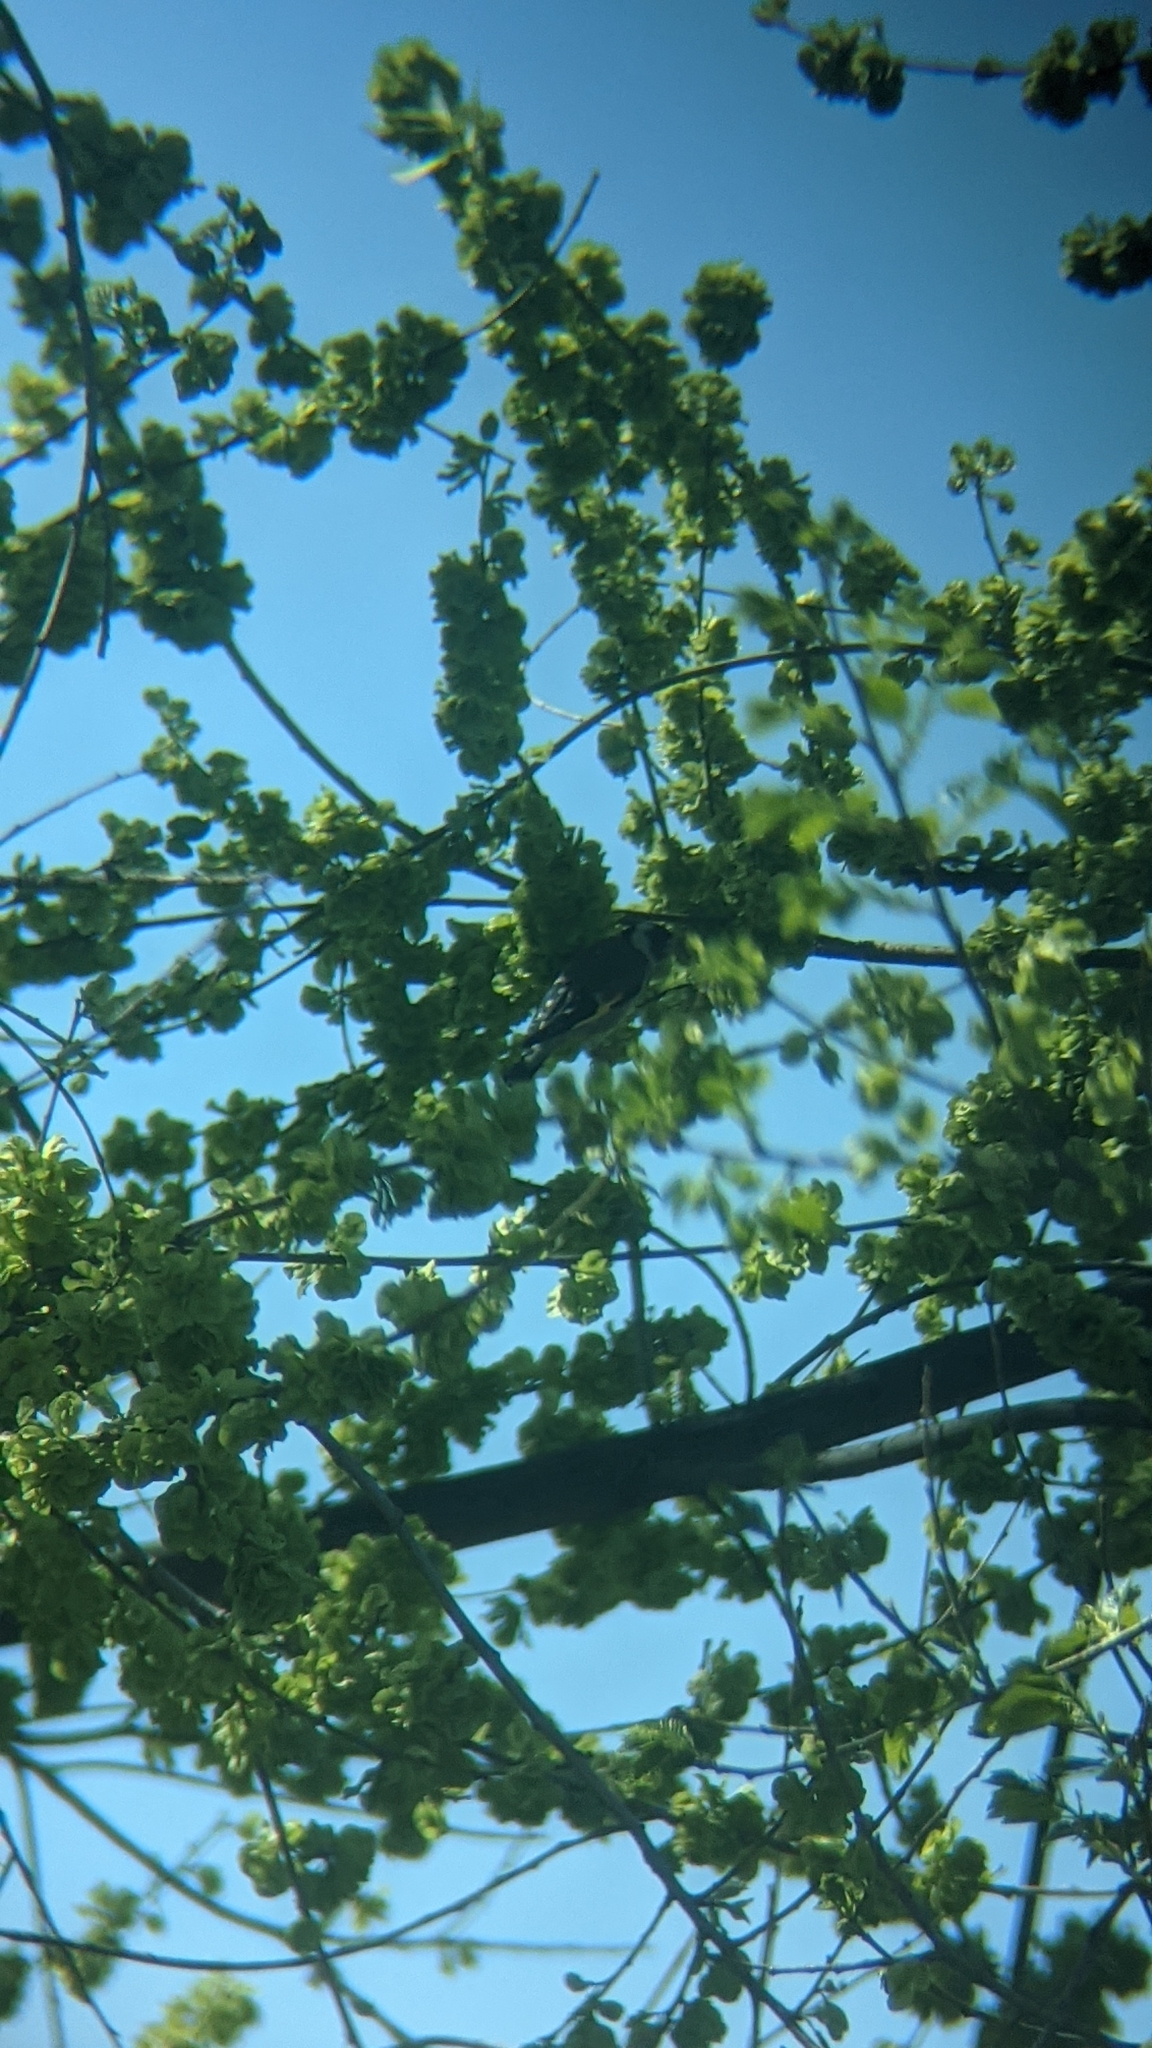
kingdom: Animalia
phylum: Chordata
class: Aves
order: Passeriformes
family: Fringillidae
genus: Carduelis
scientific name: Carduelis carduelis
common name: European goldfinch
